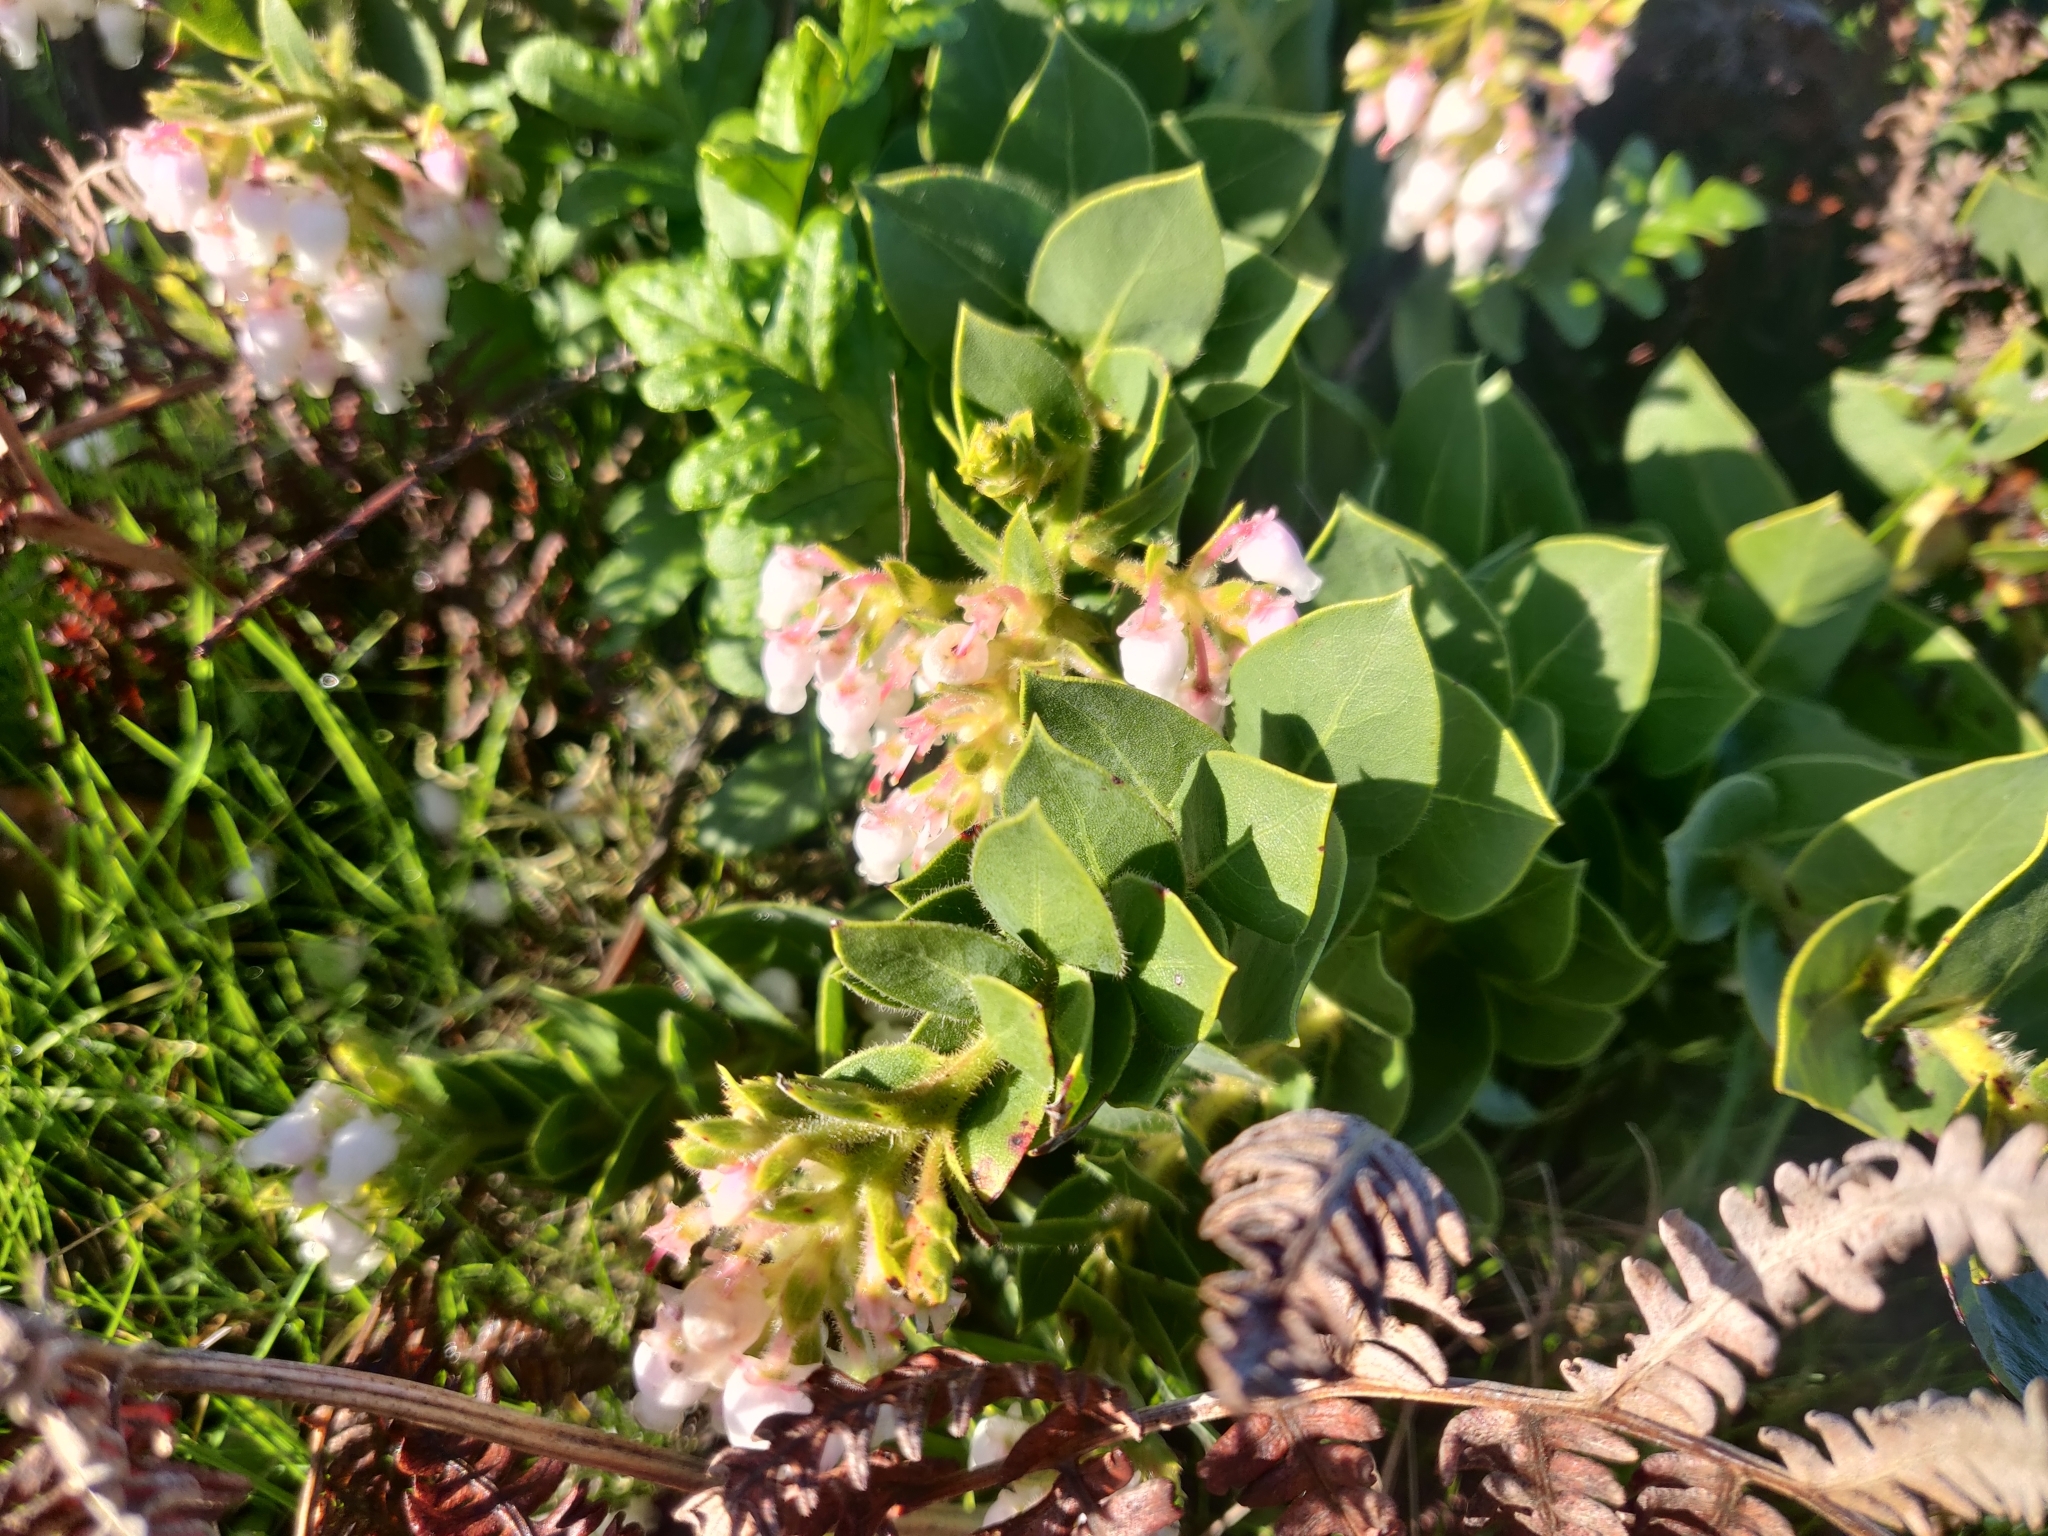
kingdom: Plantae
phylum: Tracheophyta
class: Magnoliopsida
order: Ericales
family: Ericaceae
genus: Arctostaphylos
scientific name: Arctostaphylos imbricata
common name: San bruno mountain manzanita
